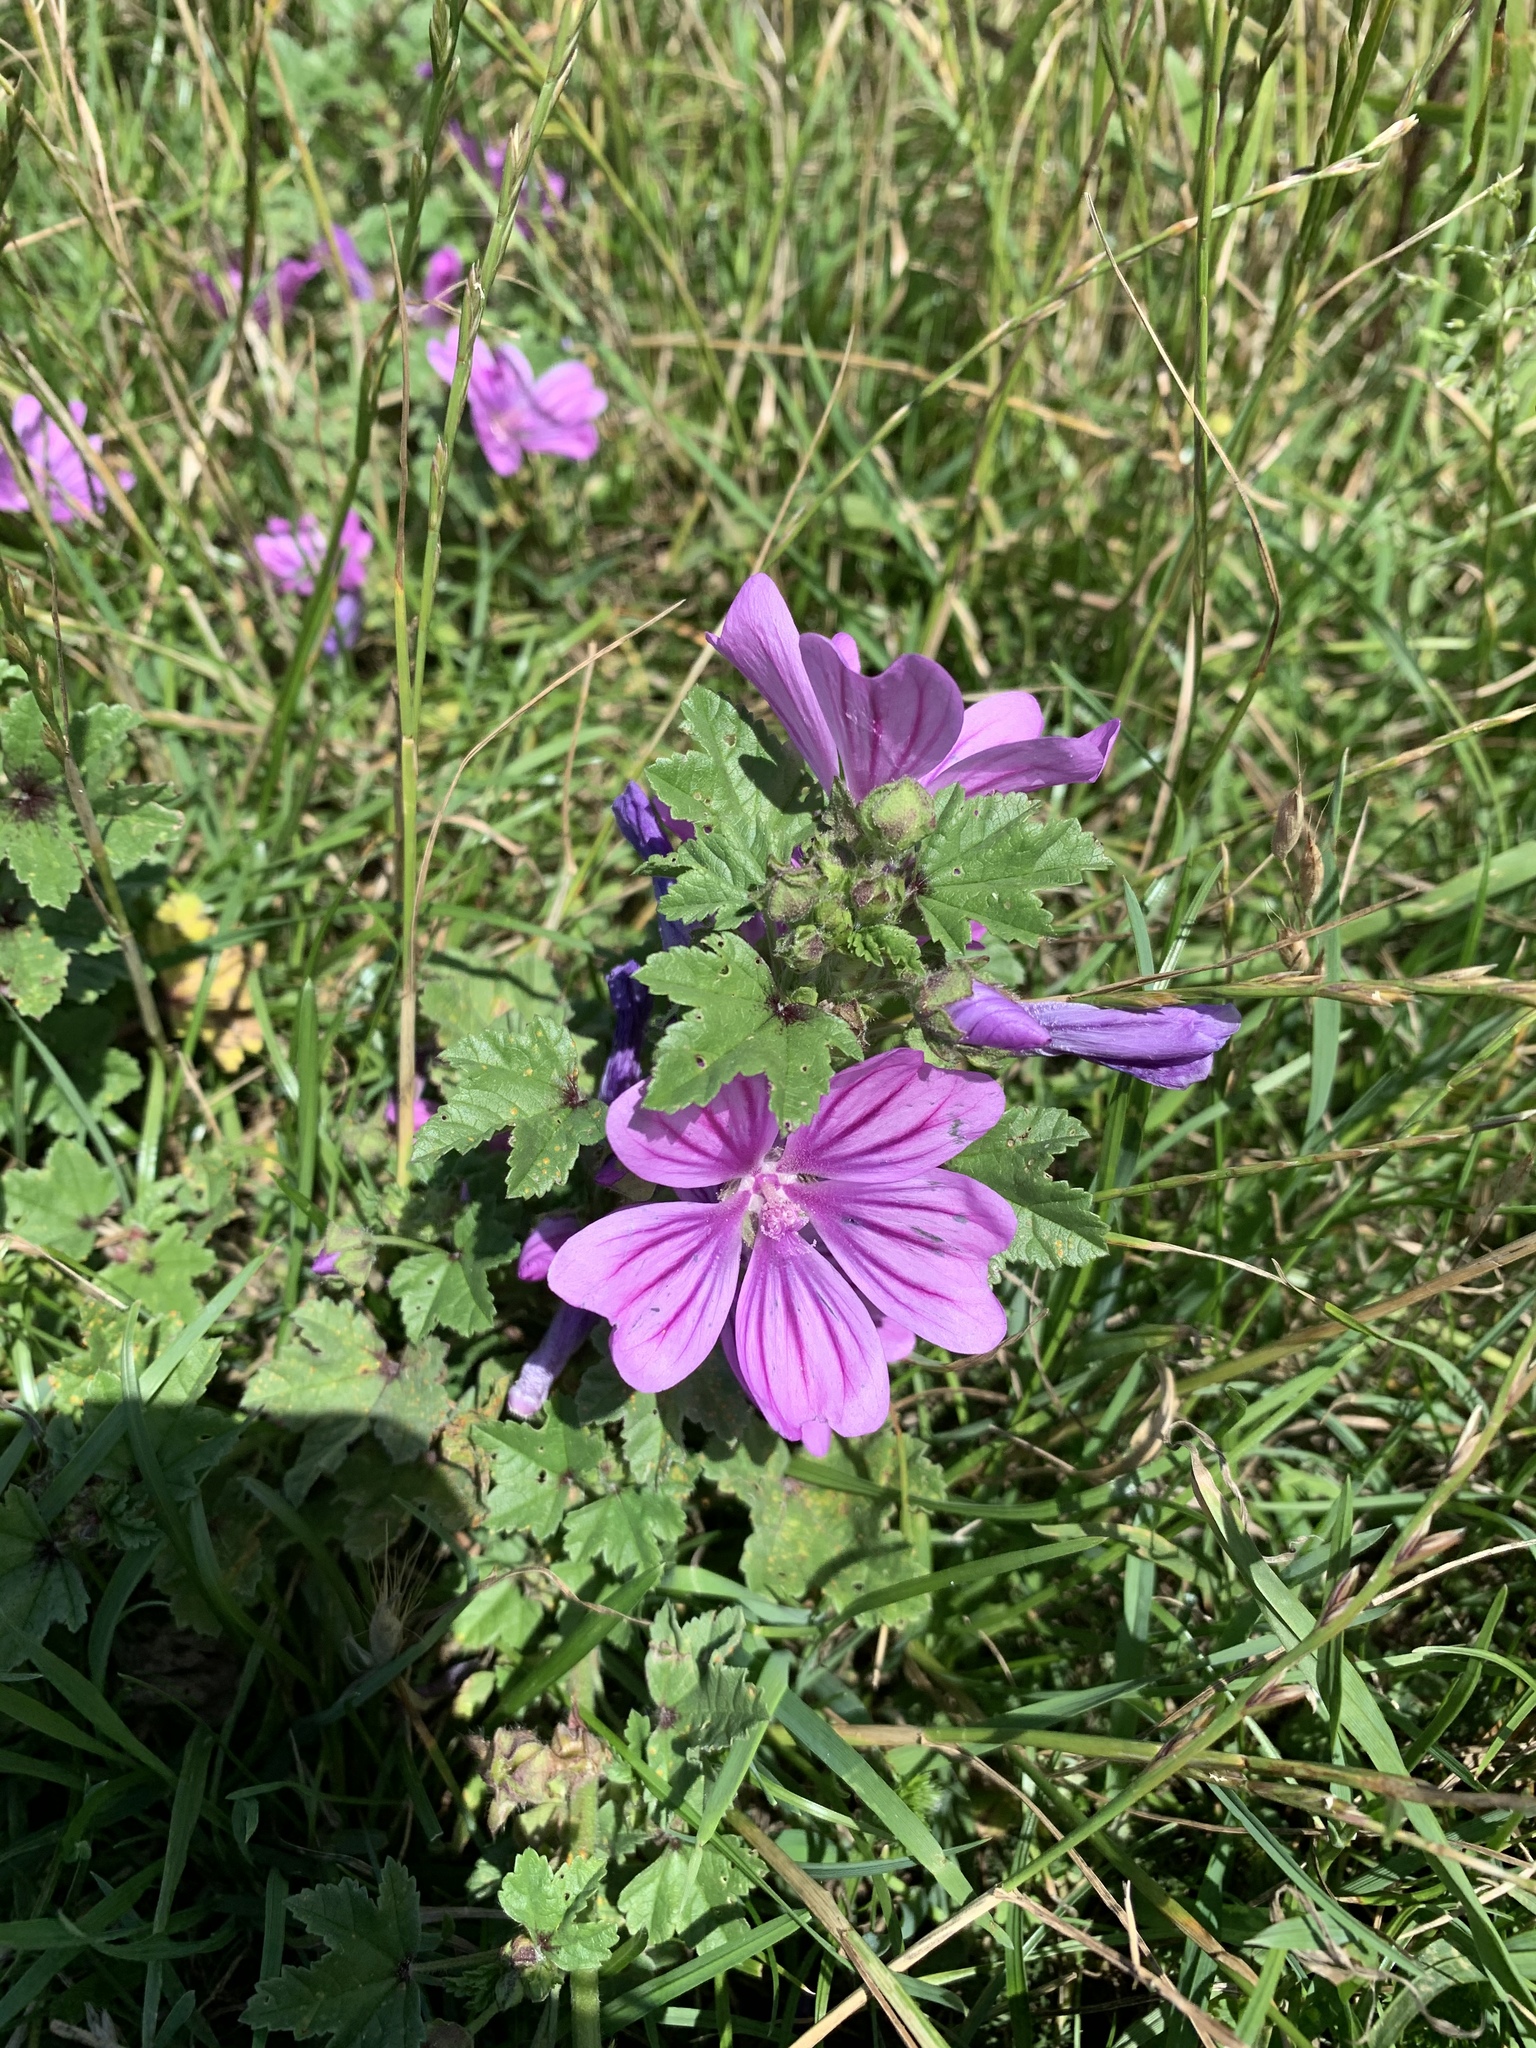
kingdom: Plantae
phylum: Tracheophyta
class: Magnoliopsida
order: Malvales
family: Malvaceae
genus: Malva
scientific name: Malva sylvestris
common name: Common mallow
